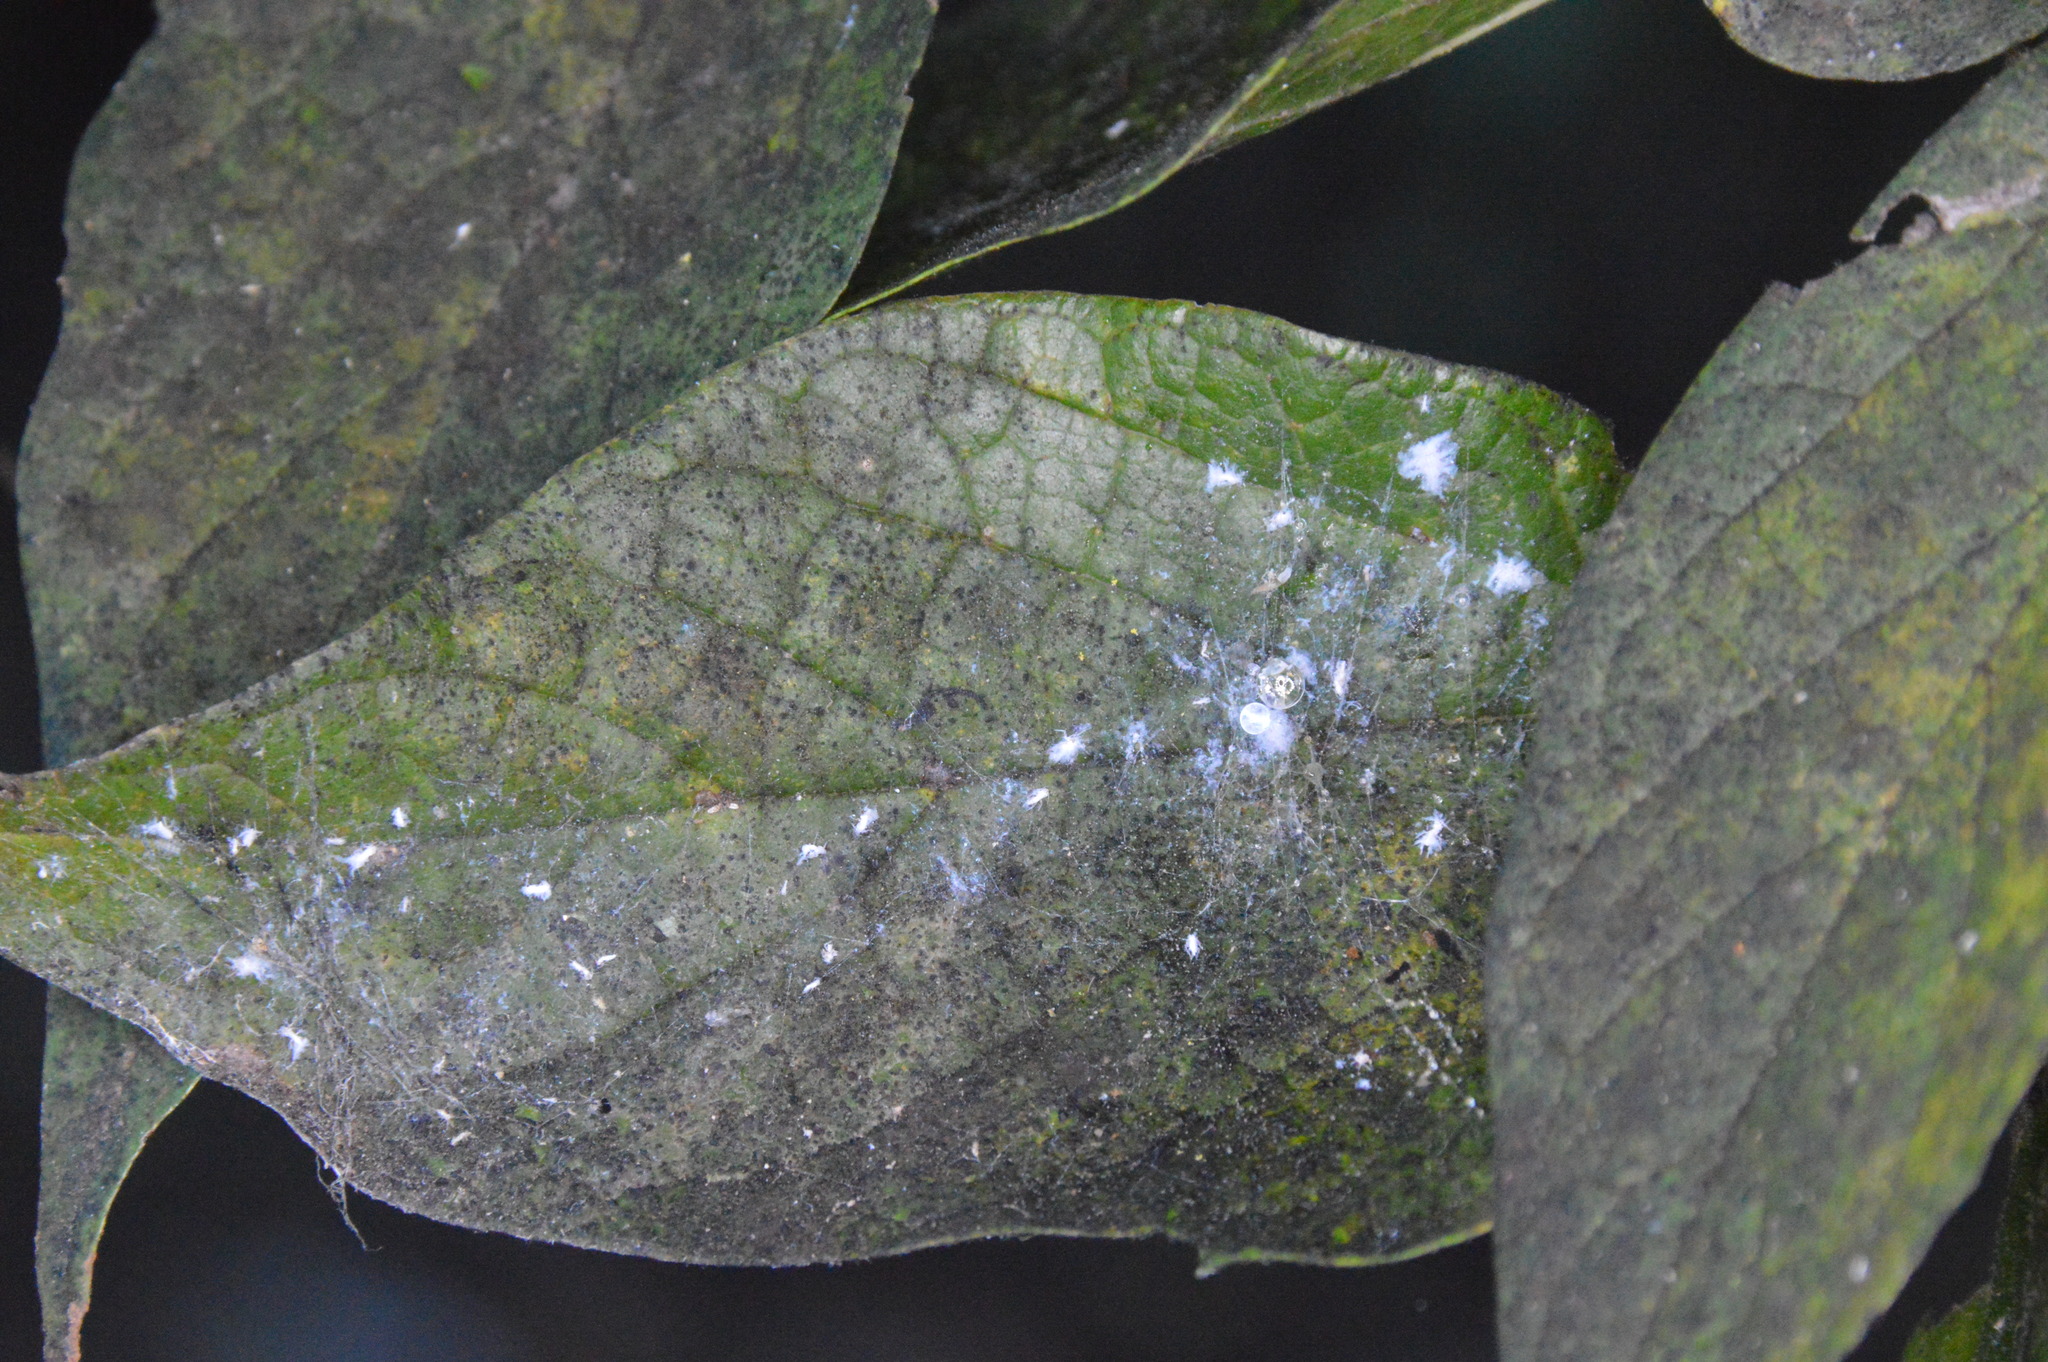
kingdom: Animalia
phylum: Arthropoda
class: Insecta
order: Hemiptera
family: Aphididae
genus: Shivaphis
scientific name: Shivaphis celti
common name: Asian wooly hackberry aphid
